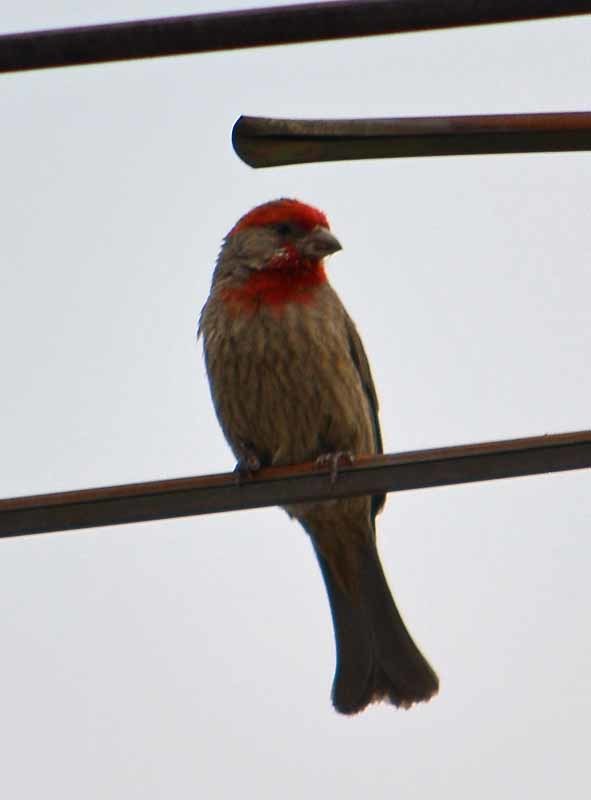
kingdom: Animalia
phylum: Chordata
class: Aves
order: Passeriformes
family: Fringillidae
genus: Haemorhous
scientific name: Haemorhous mexicanus
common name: House finch
